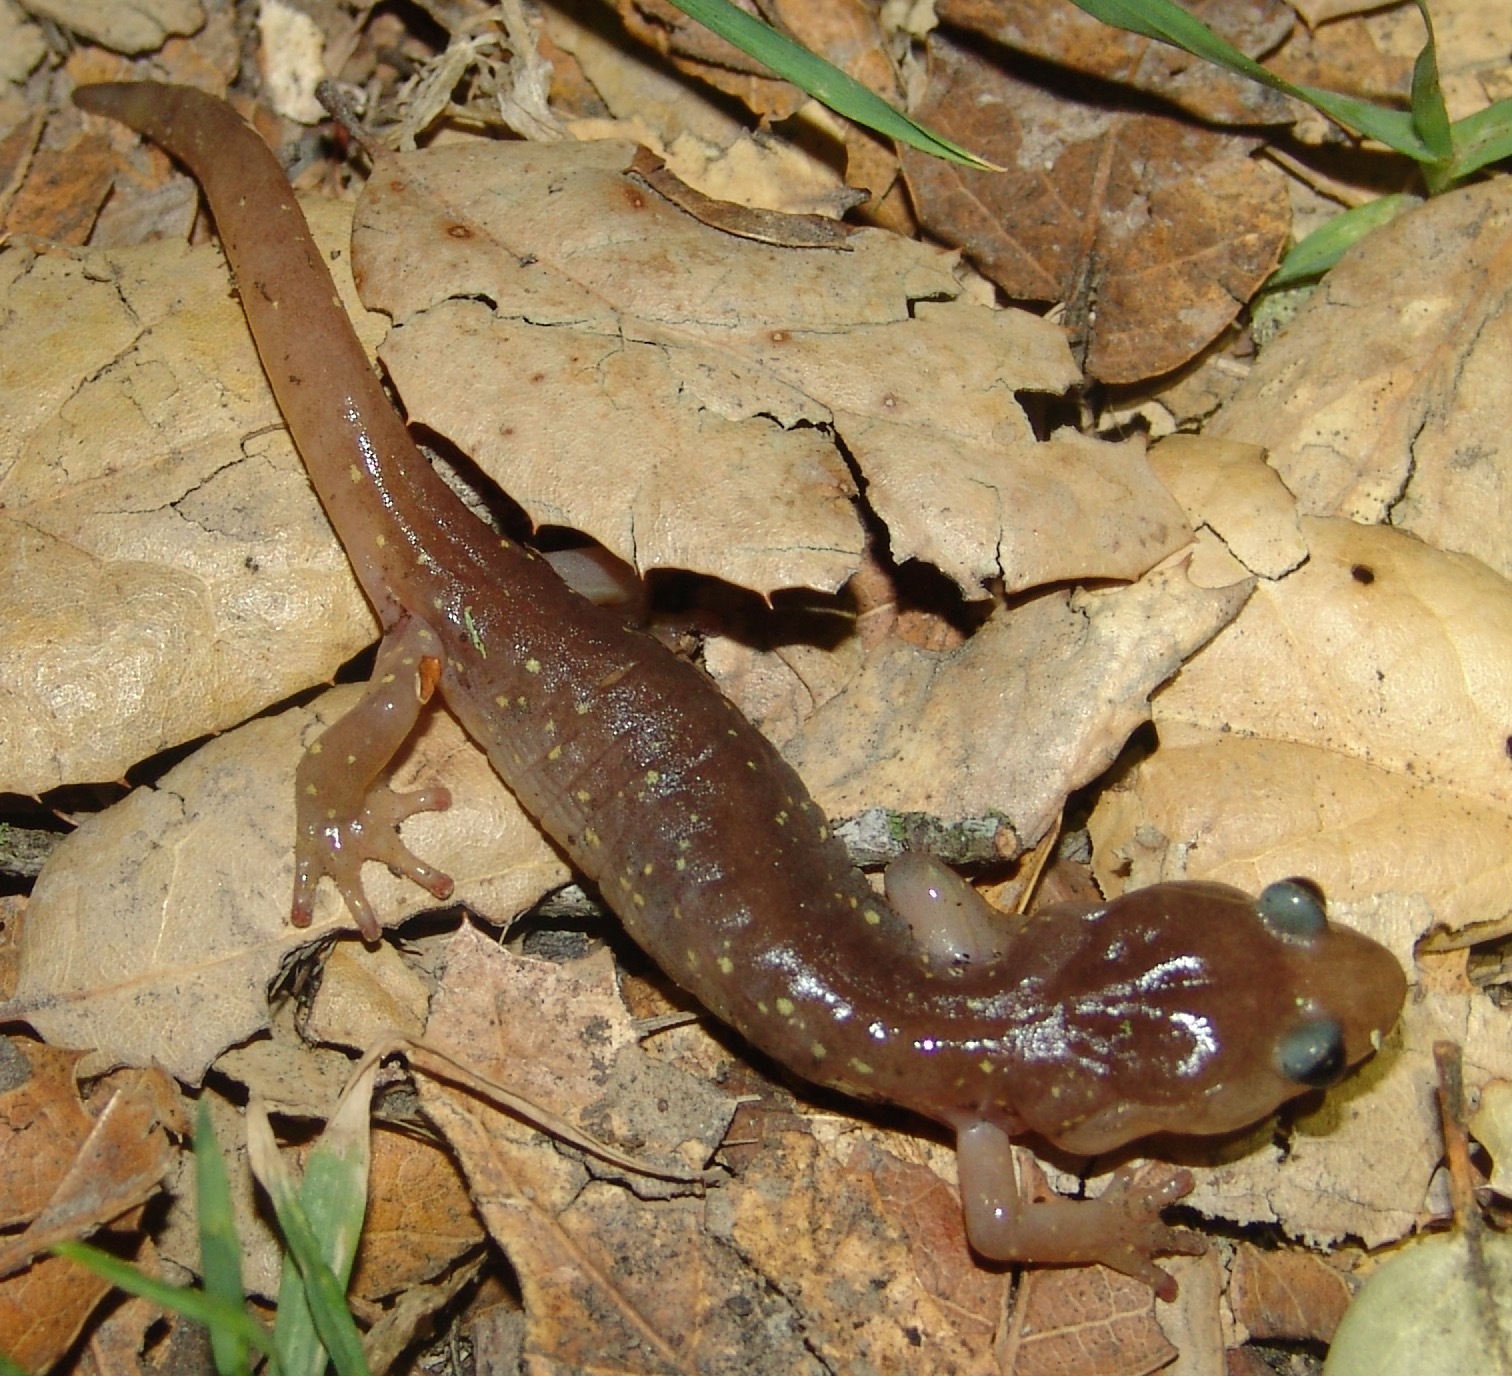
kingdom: Animalia
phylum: Chordata
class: Amphibia
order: Caudata
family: Plethodontidae
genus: Aneides
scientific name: Aneides lugubris
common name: Arboreal salamander
